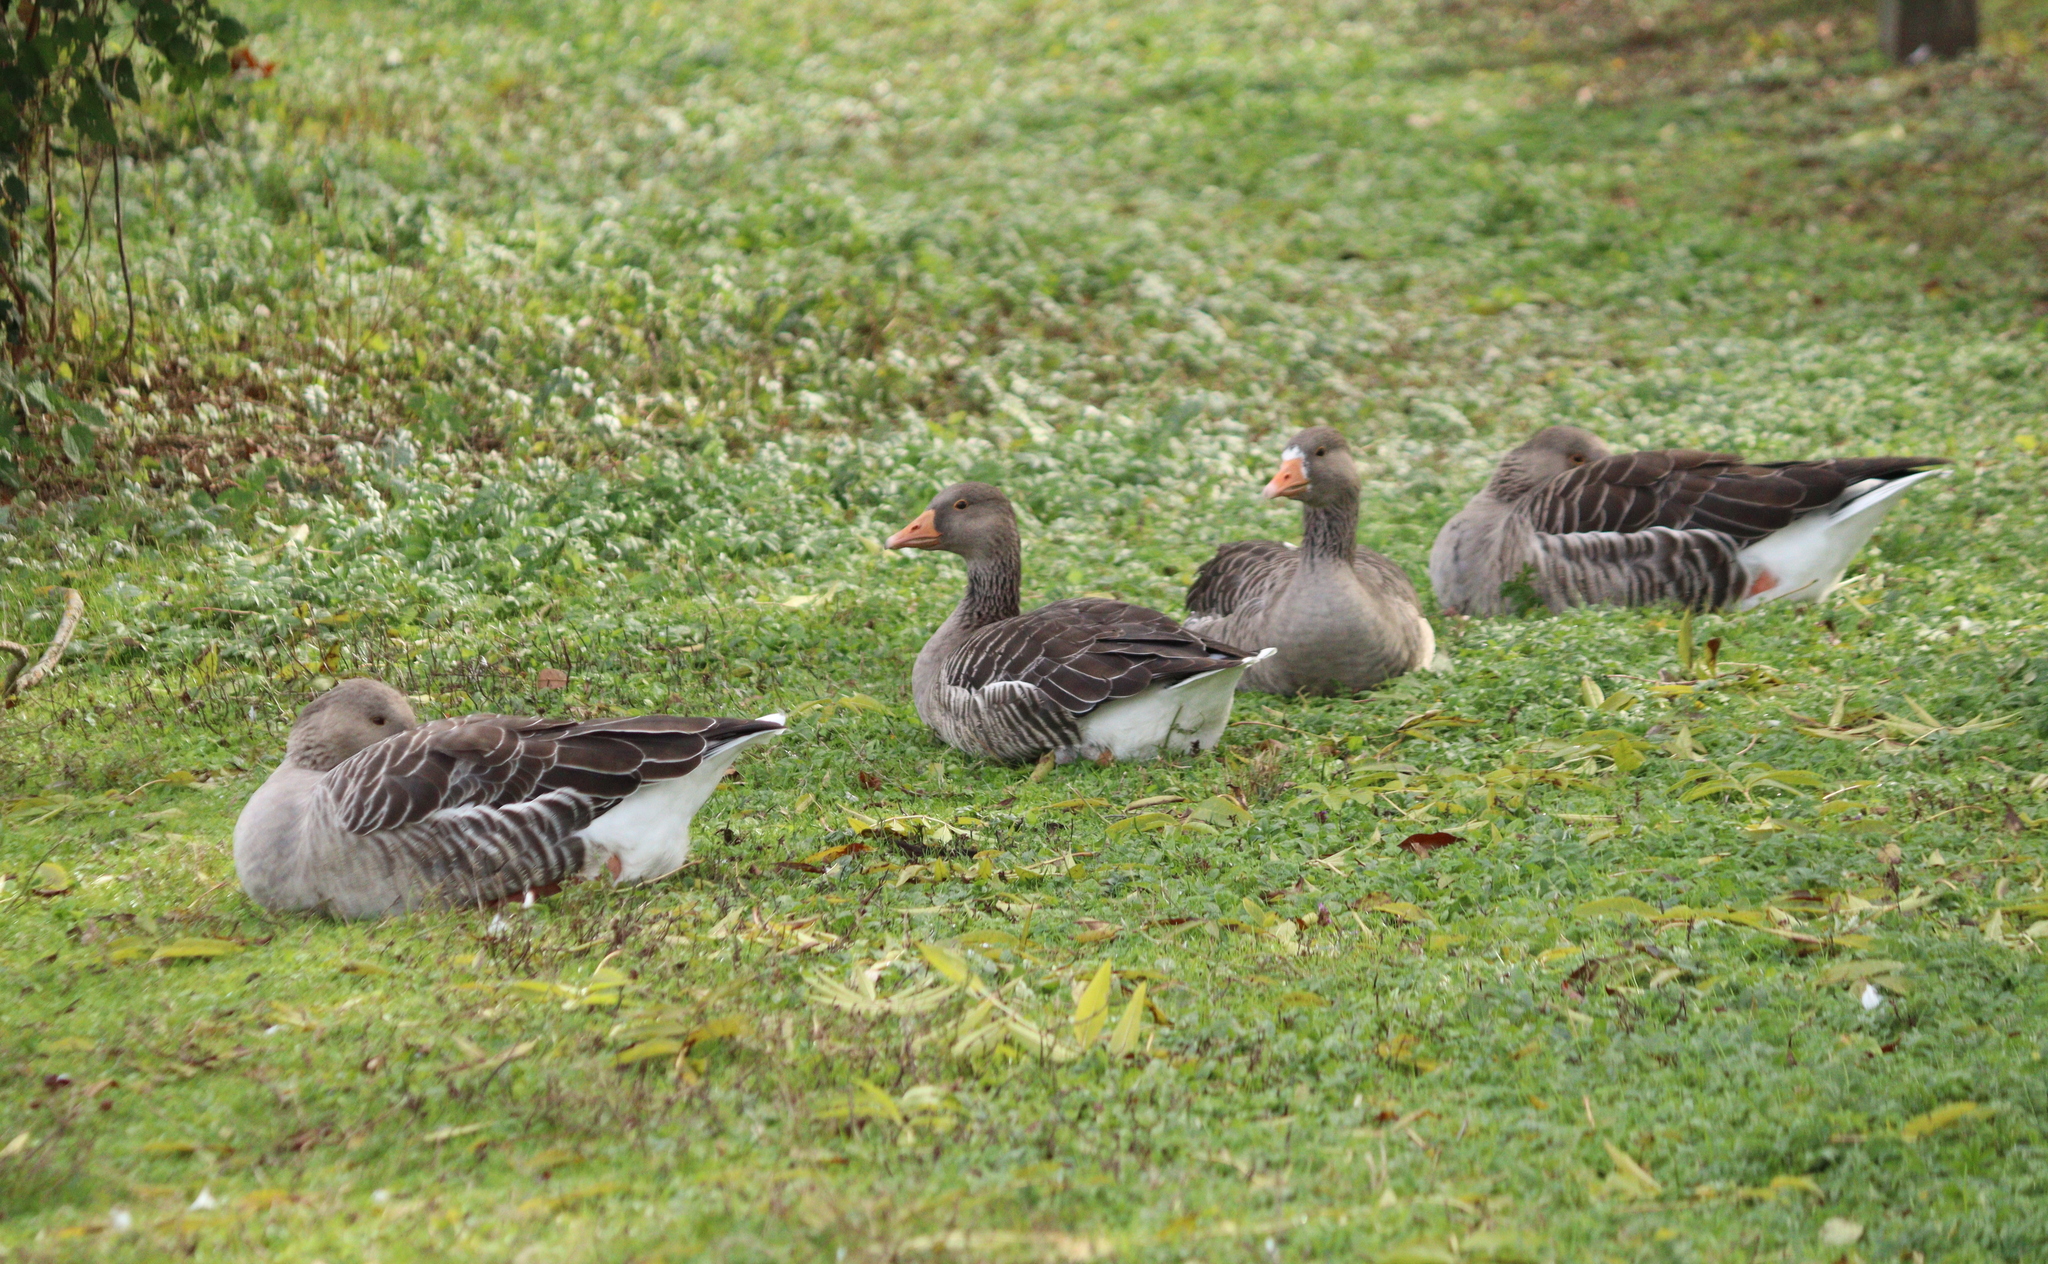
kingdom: Animalia
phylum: Chordata
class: Aves
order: Anseriformes
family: Anatidae
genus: Anser
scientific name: Anser anser
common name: Greylag goose
